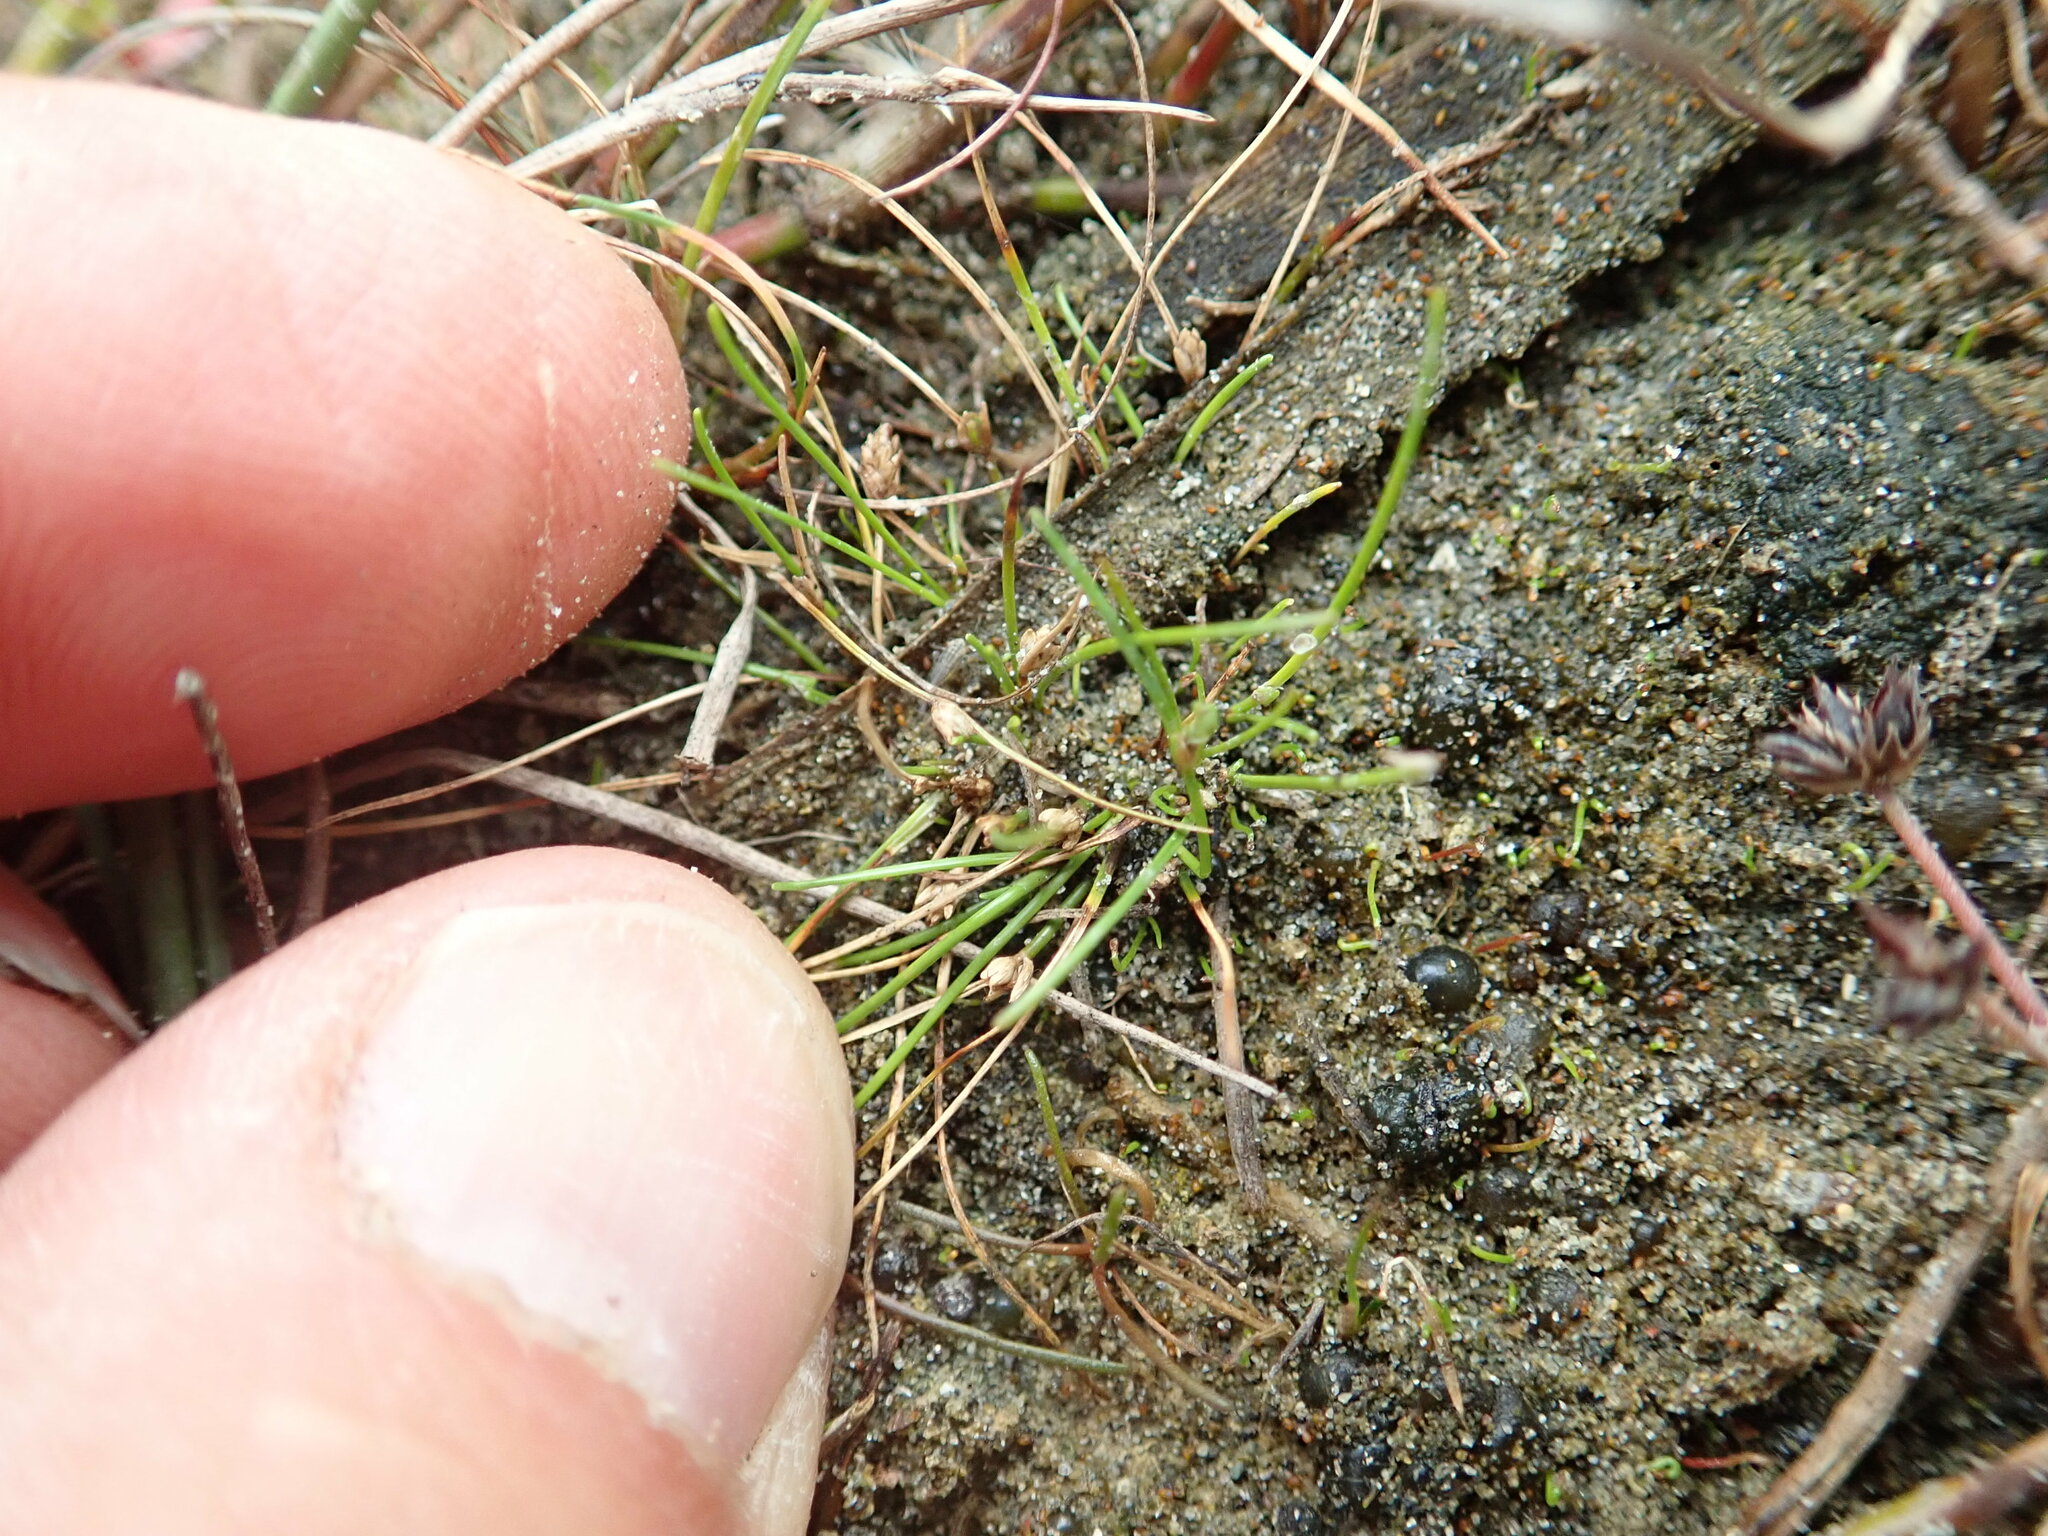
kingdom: Plantae
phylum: Tracheophyta
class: Liliopsida
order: Poales
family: Cyperaceae
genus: Isolepis
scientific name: Isolepis basilaris
